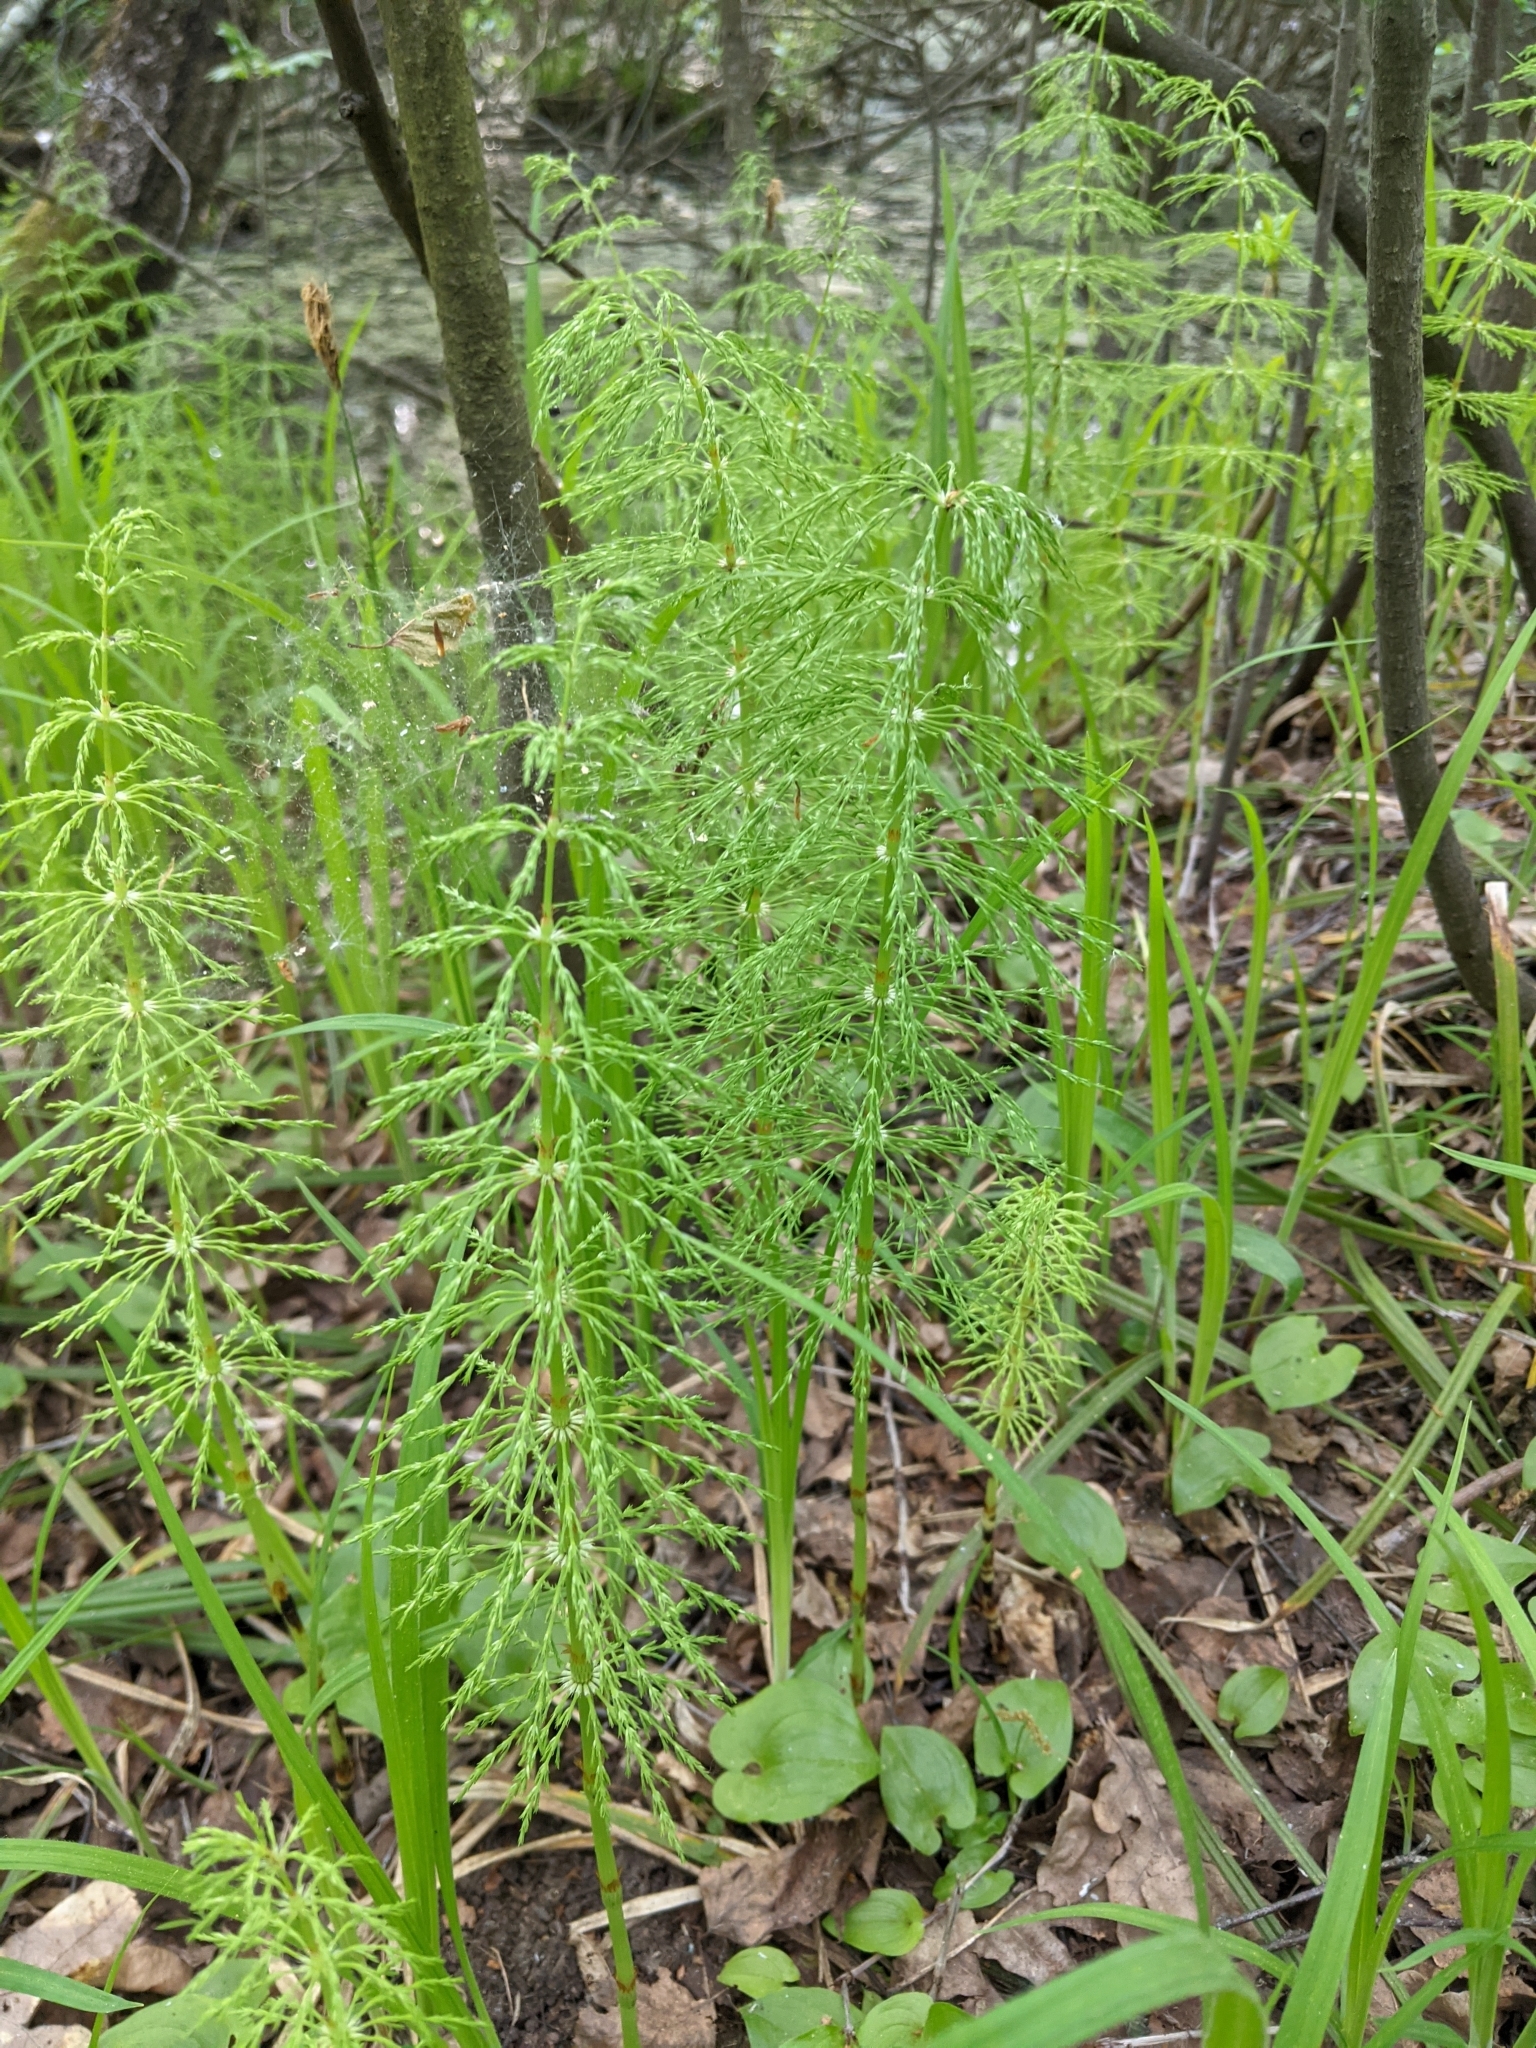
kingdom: Plantae
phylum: Tracheophyta
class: Polypodiopsida
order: Equisetales
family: Equisetaceae
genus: Equisetum
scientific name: Equisetum sylvaticum
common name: Wood horsetail
